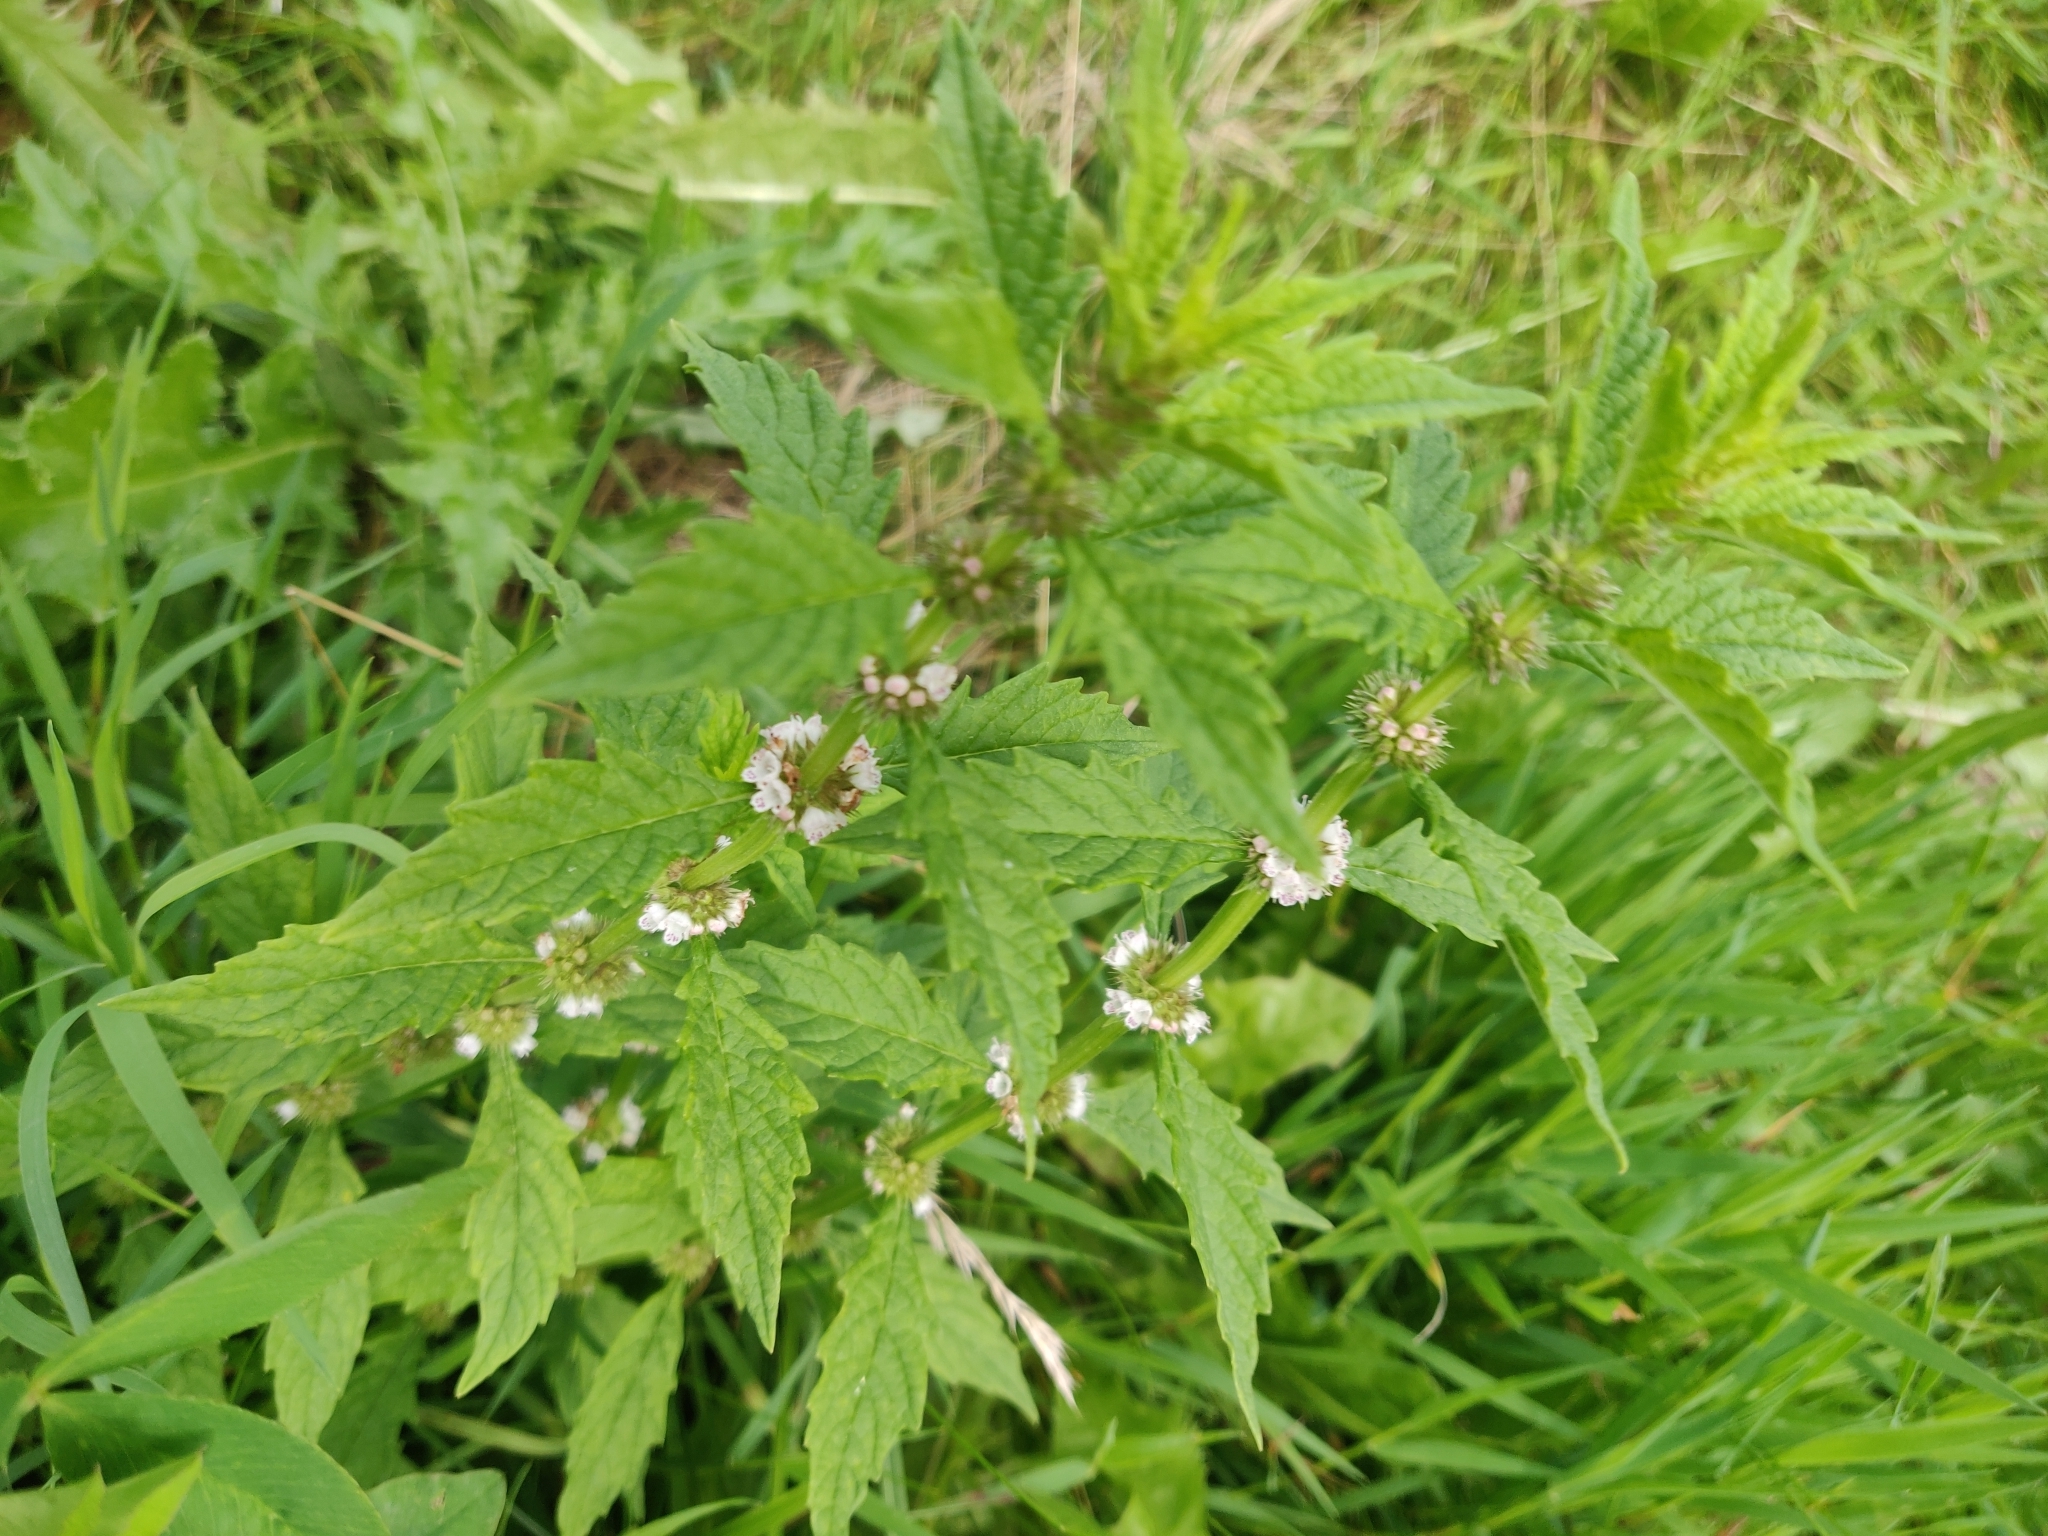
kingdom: Plantae
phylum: Tracheophyta
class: Magnoliopsida
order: Lamiales
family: Lamiaceae
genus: Lycopus
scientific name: Lycopus europaeus
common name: European bugleweed
